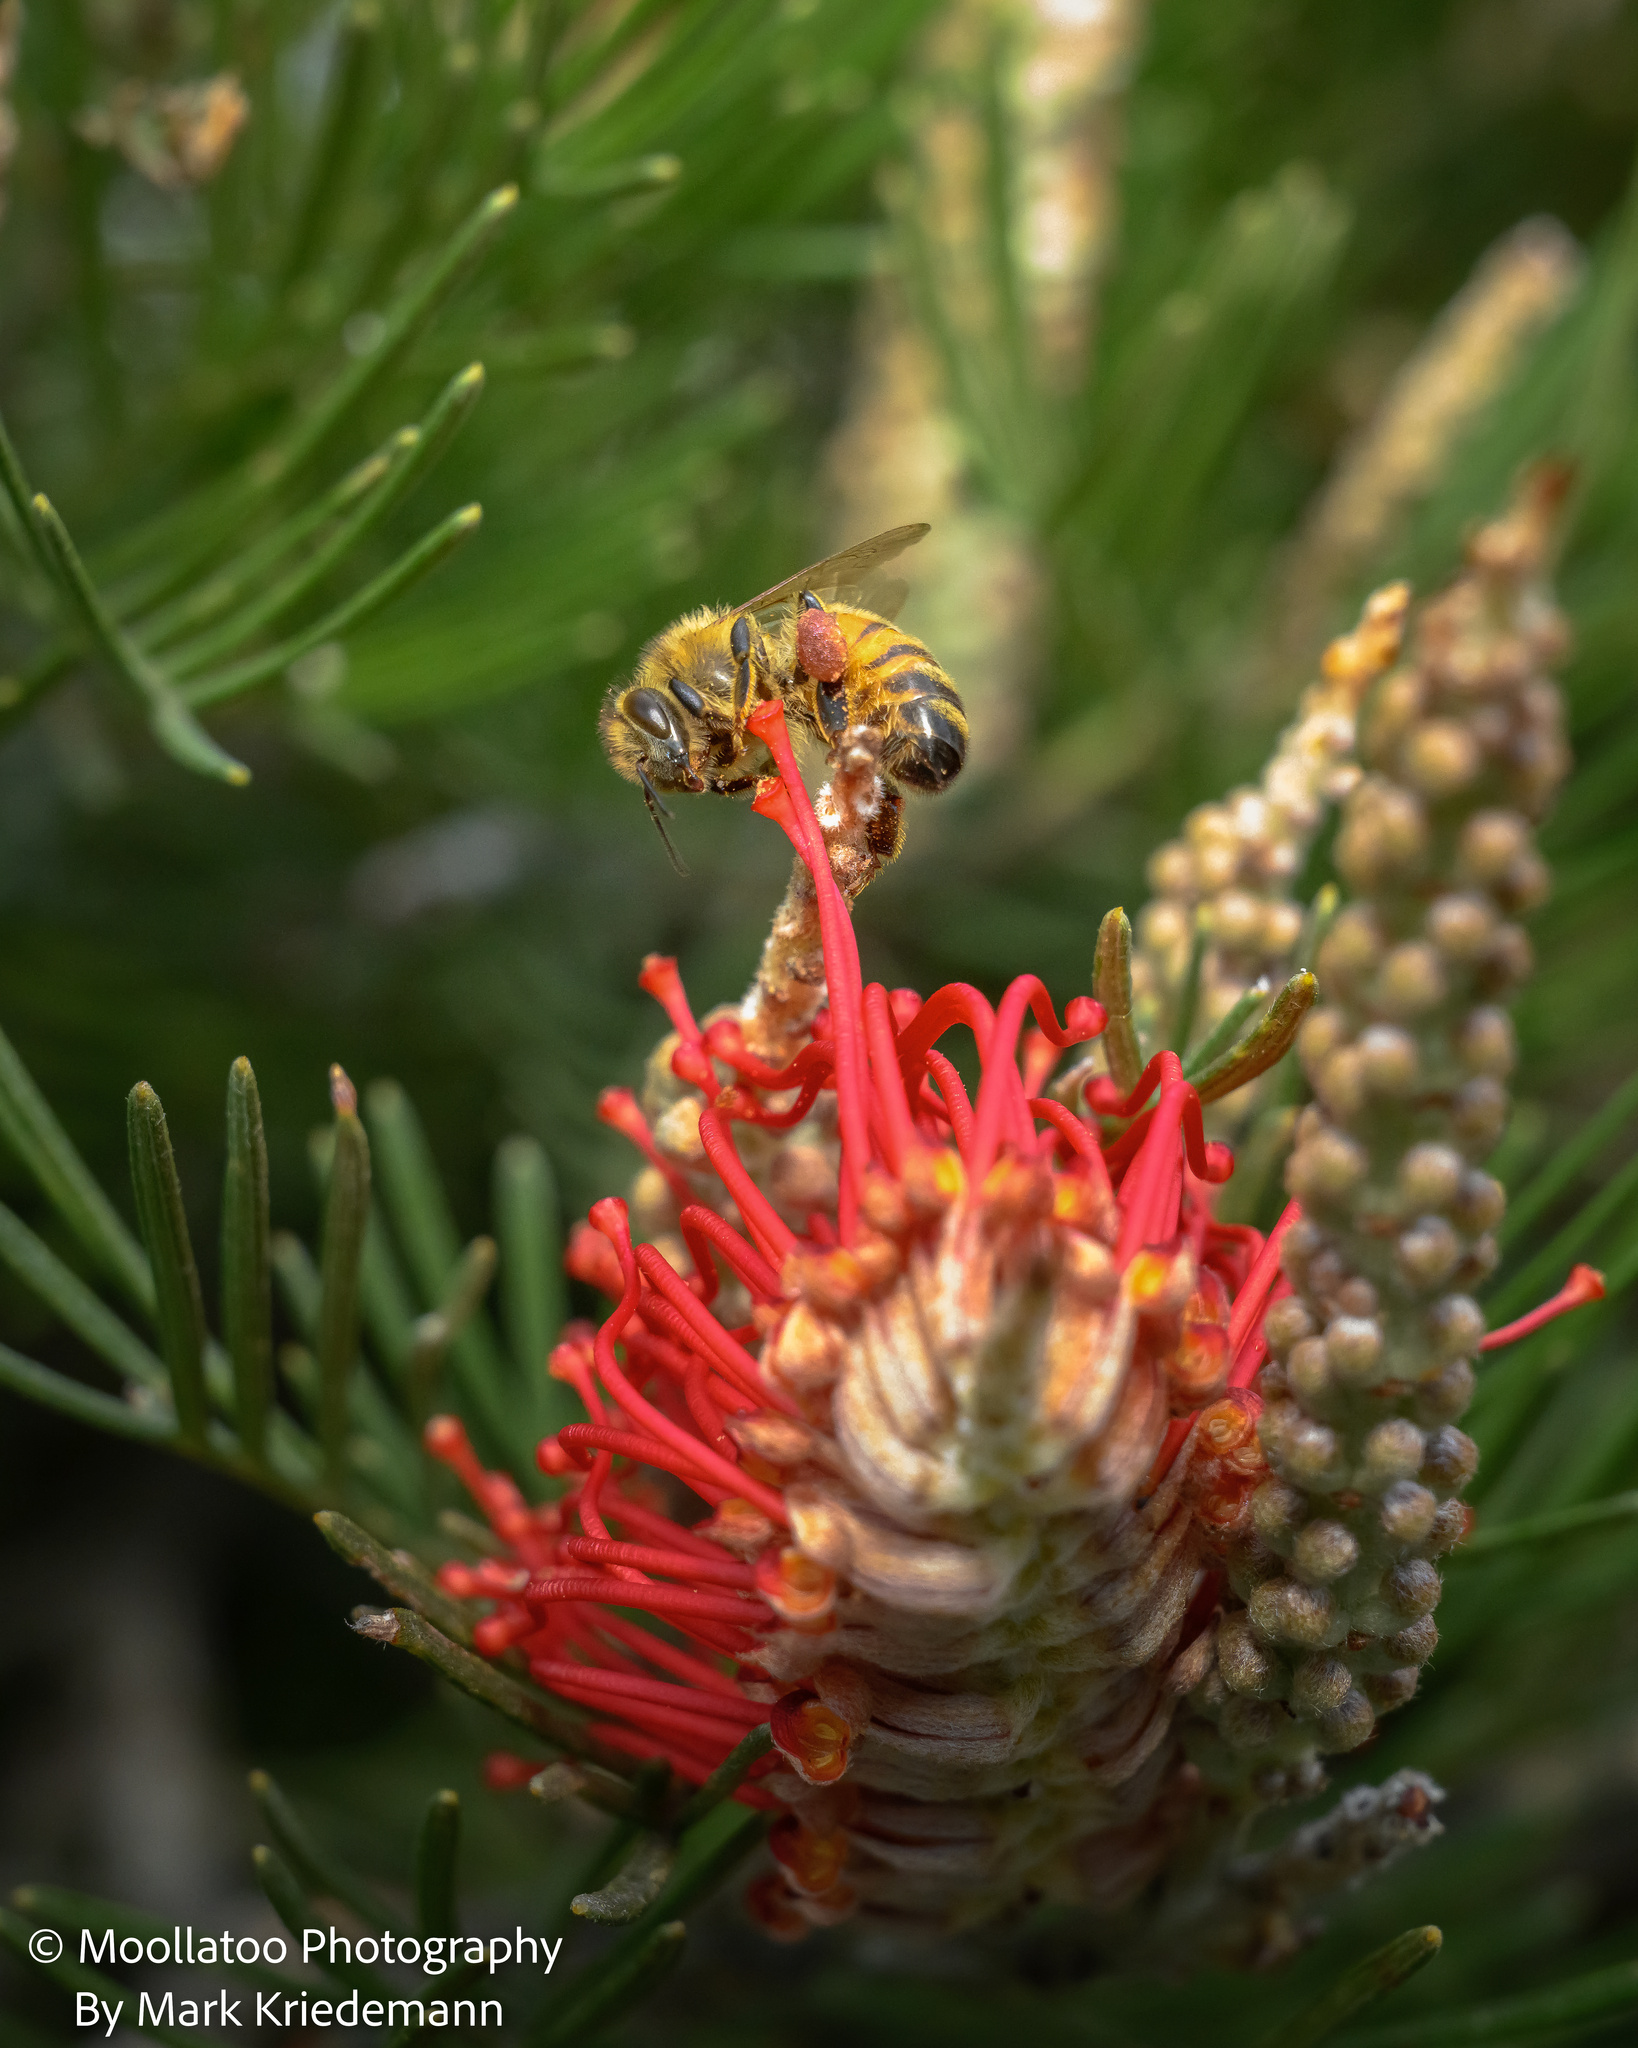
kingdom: Animalia
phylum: Arthropoda
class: Insecta
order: Hymenoptera
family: Apidae
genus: Apis
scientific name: Apis mellifera
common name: Honey bee
